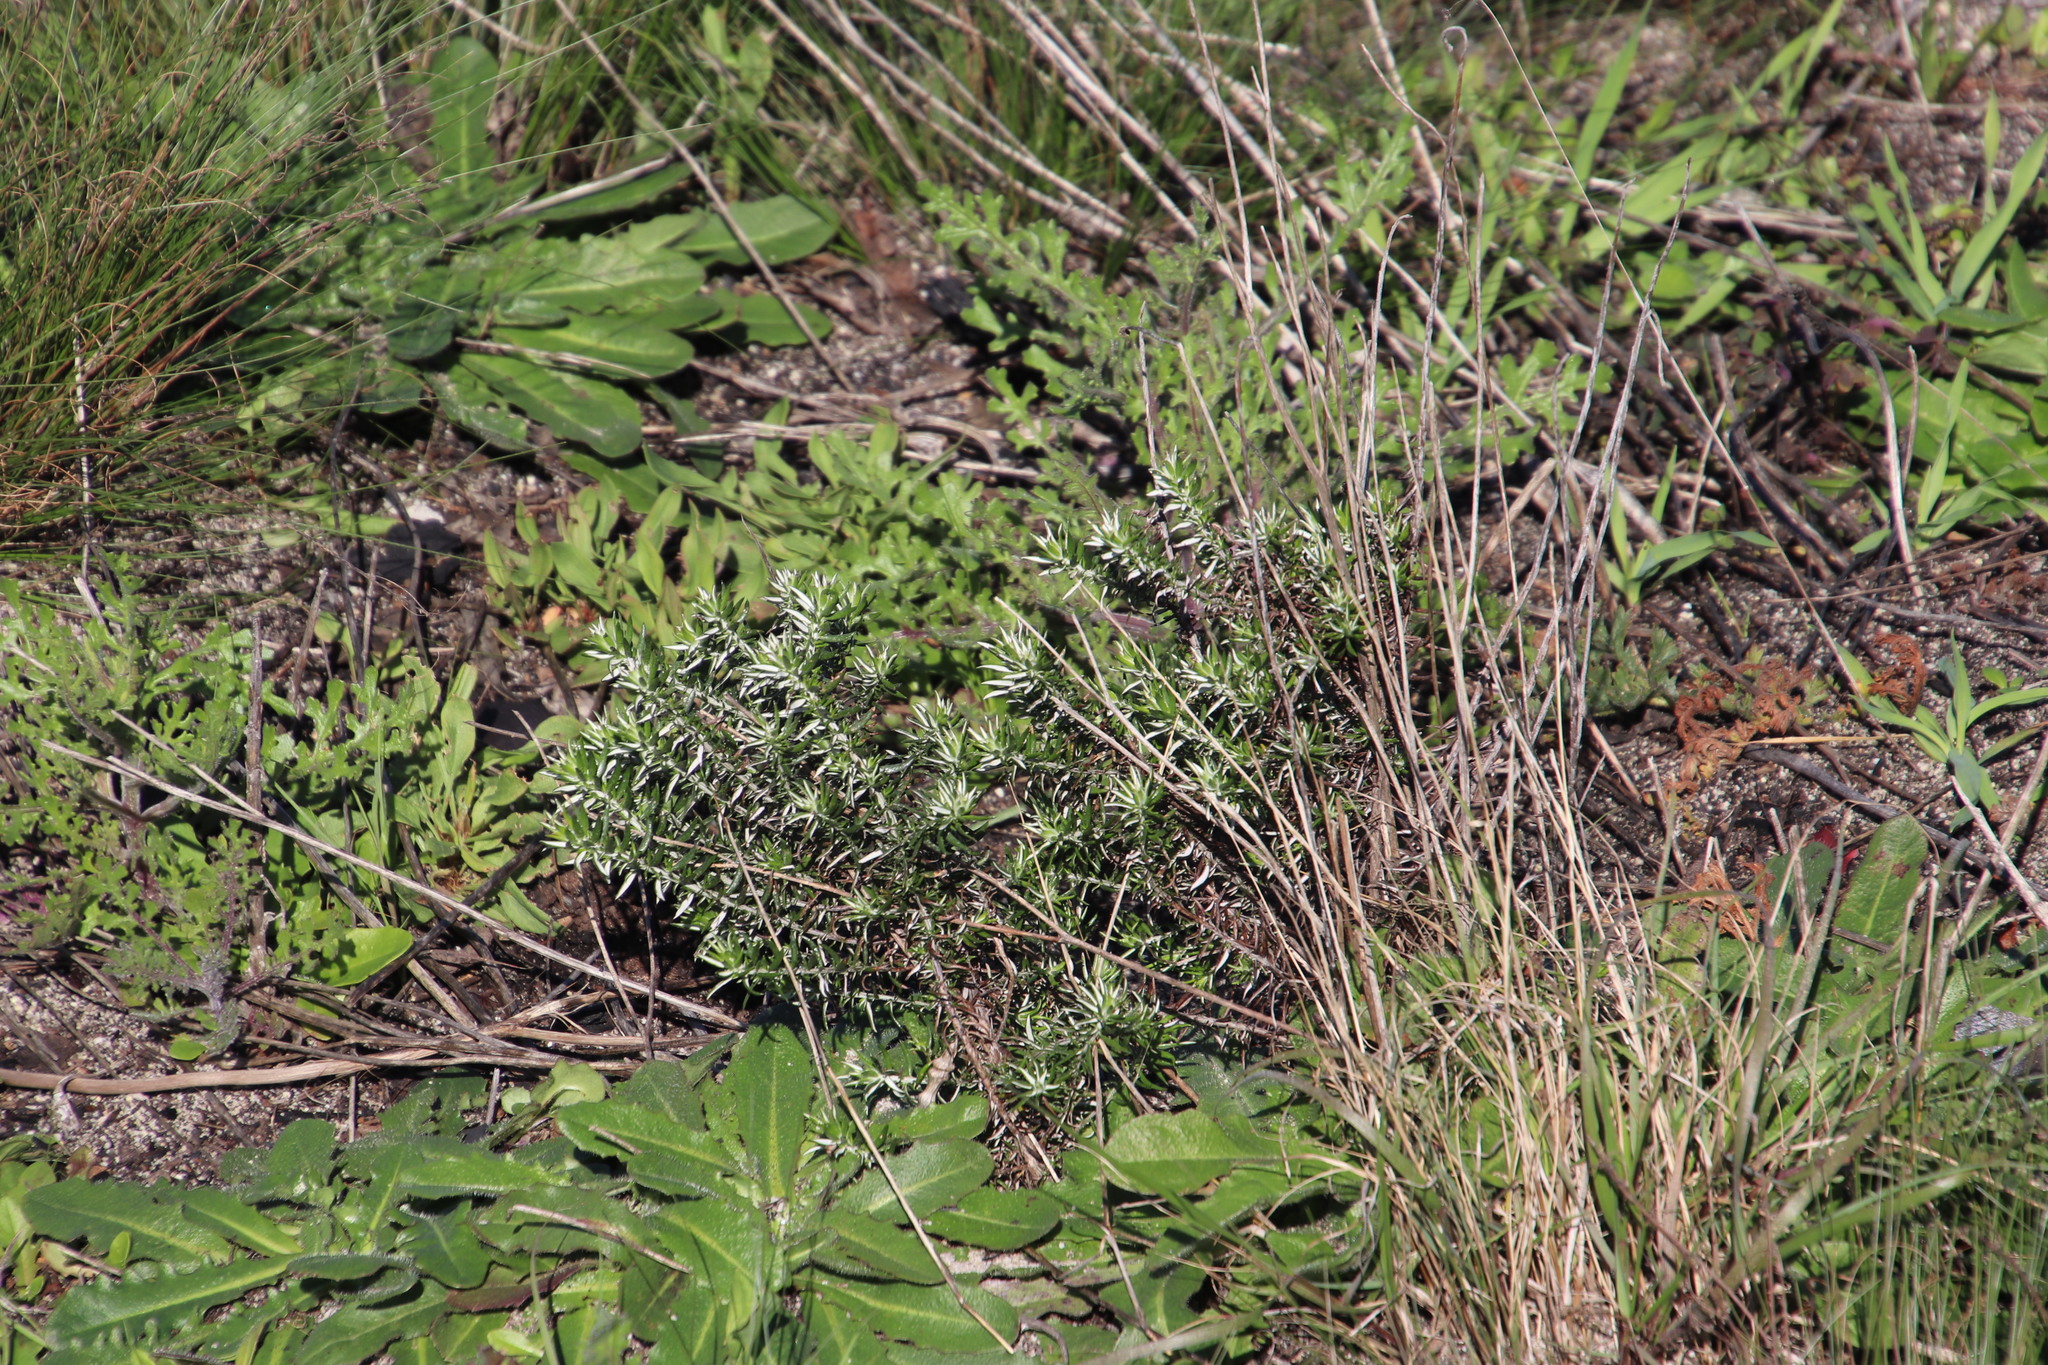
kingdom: Plantae
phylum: Tracheophyta
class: Magnoliopsida
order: Asterales
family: Asteraceae
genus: Metalasia
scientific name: Metalasia densa
